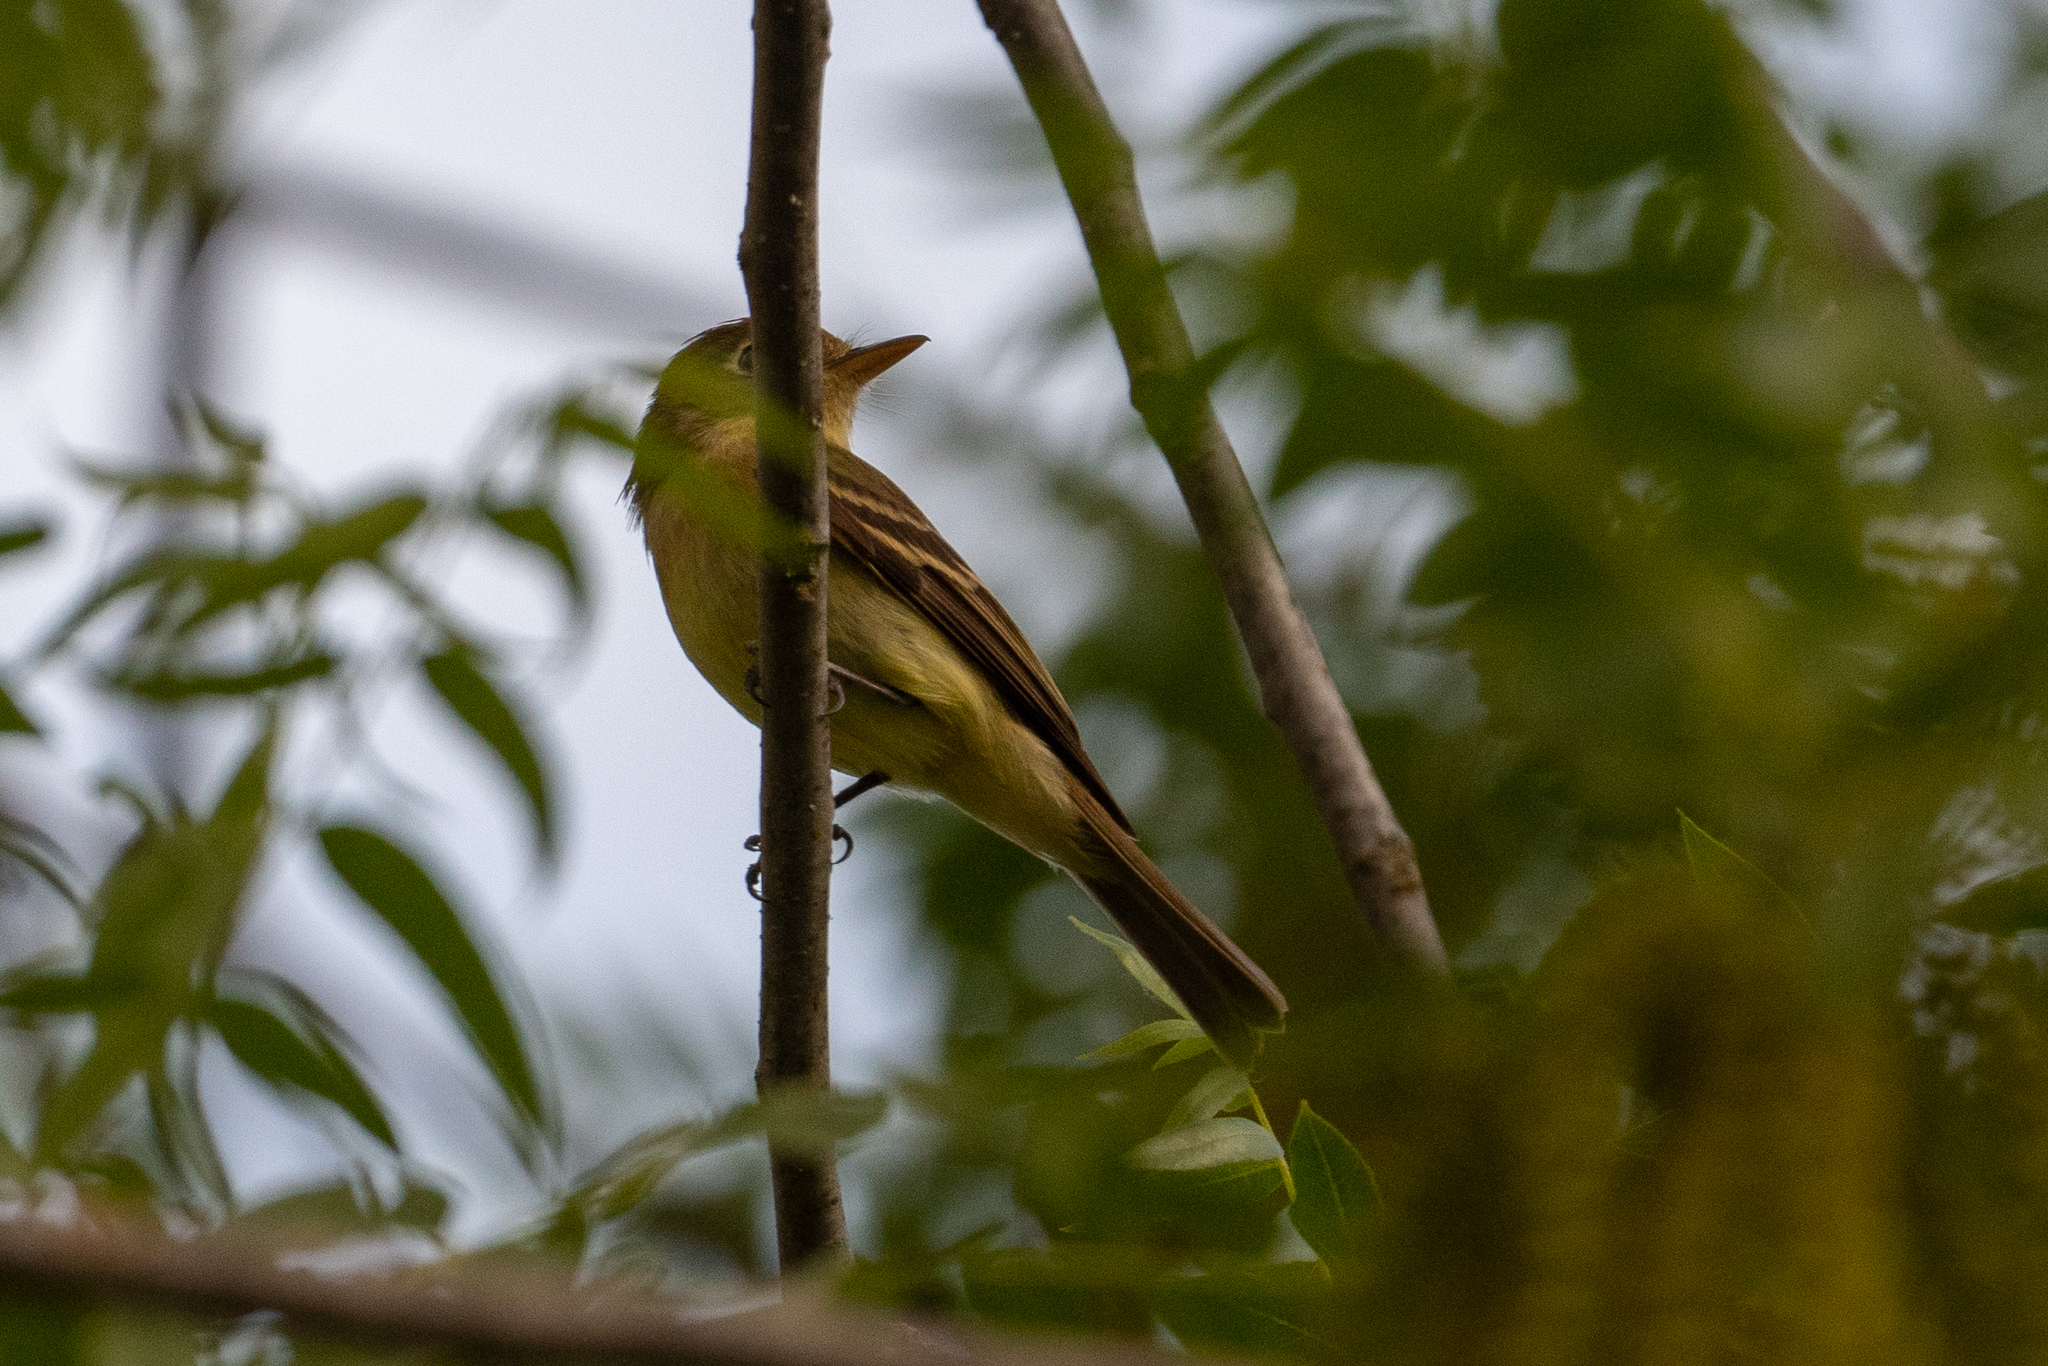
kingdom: Animalia
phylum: Chordata
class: Aves
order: Passeriformes
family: Tyrannidae
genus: Empidonax
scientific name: Empidonax difficilis
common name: Pacific-slope flycatcher
